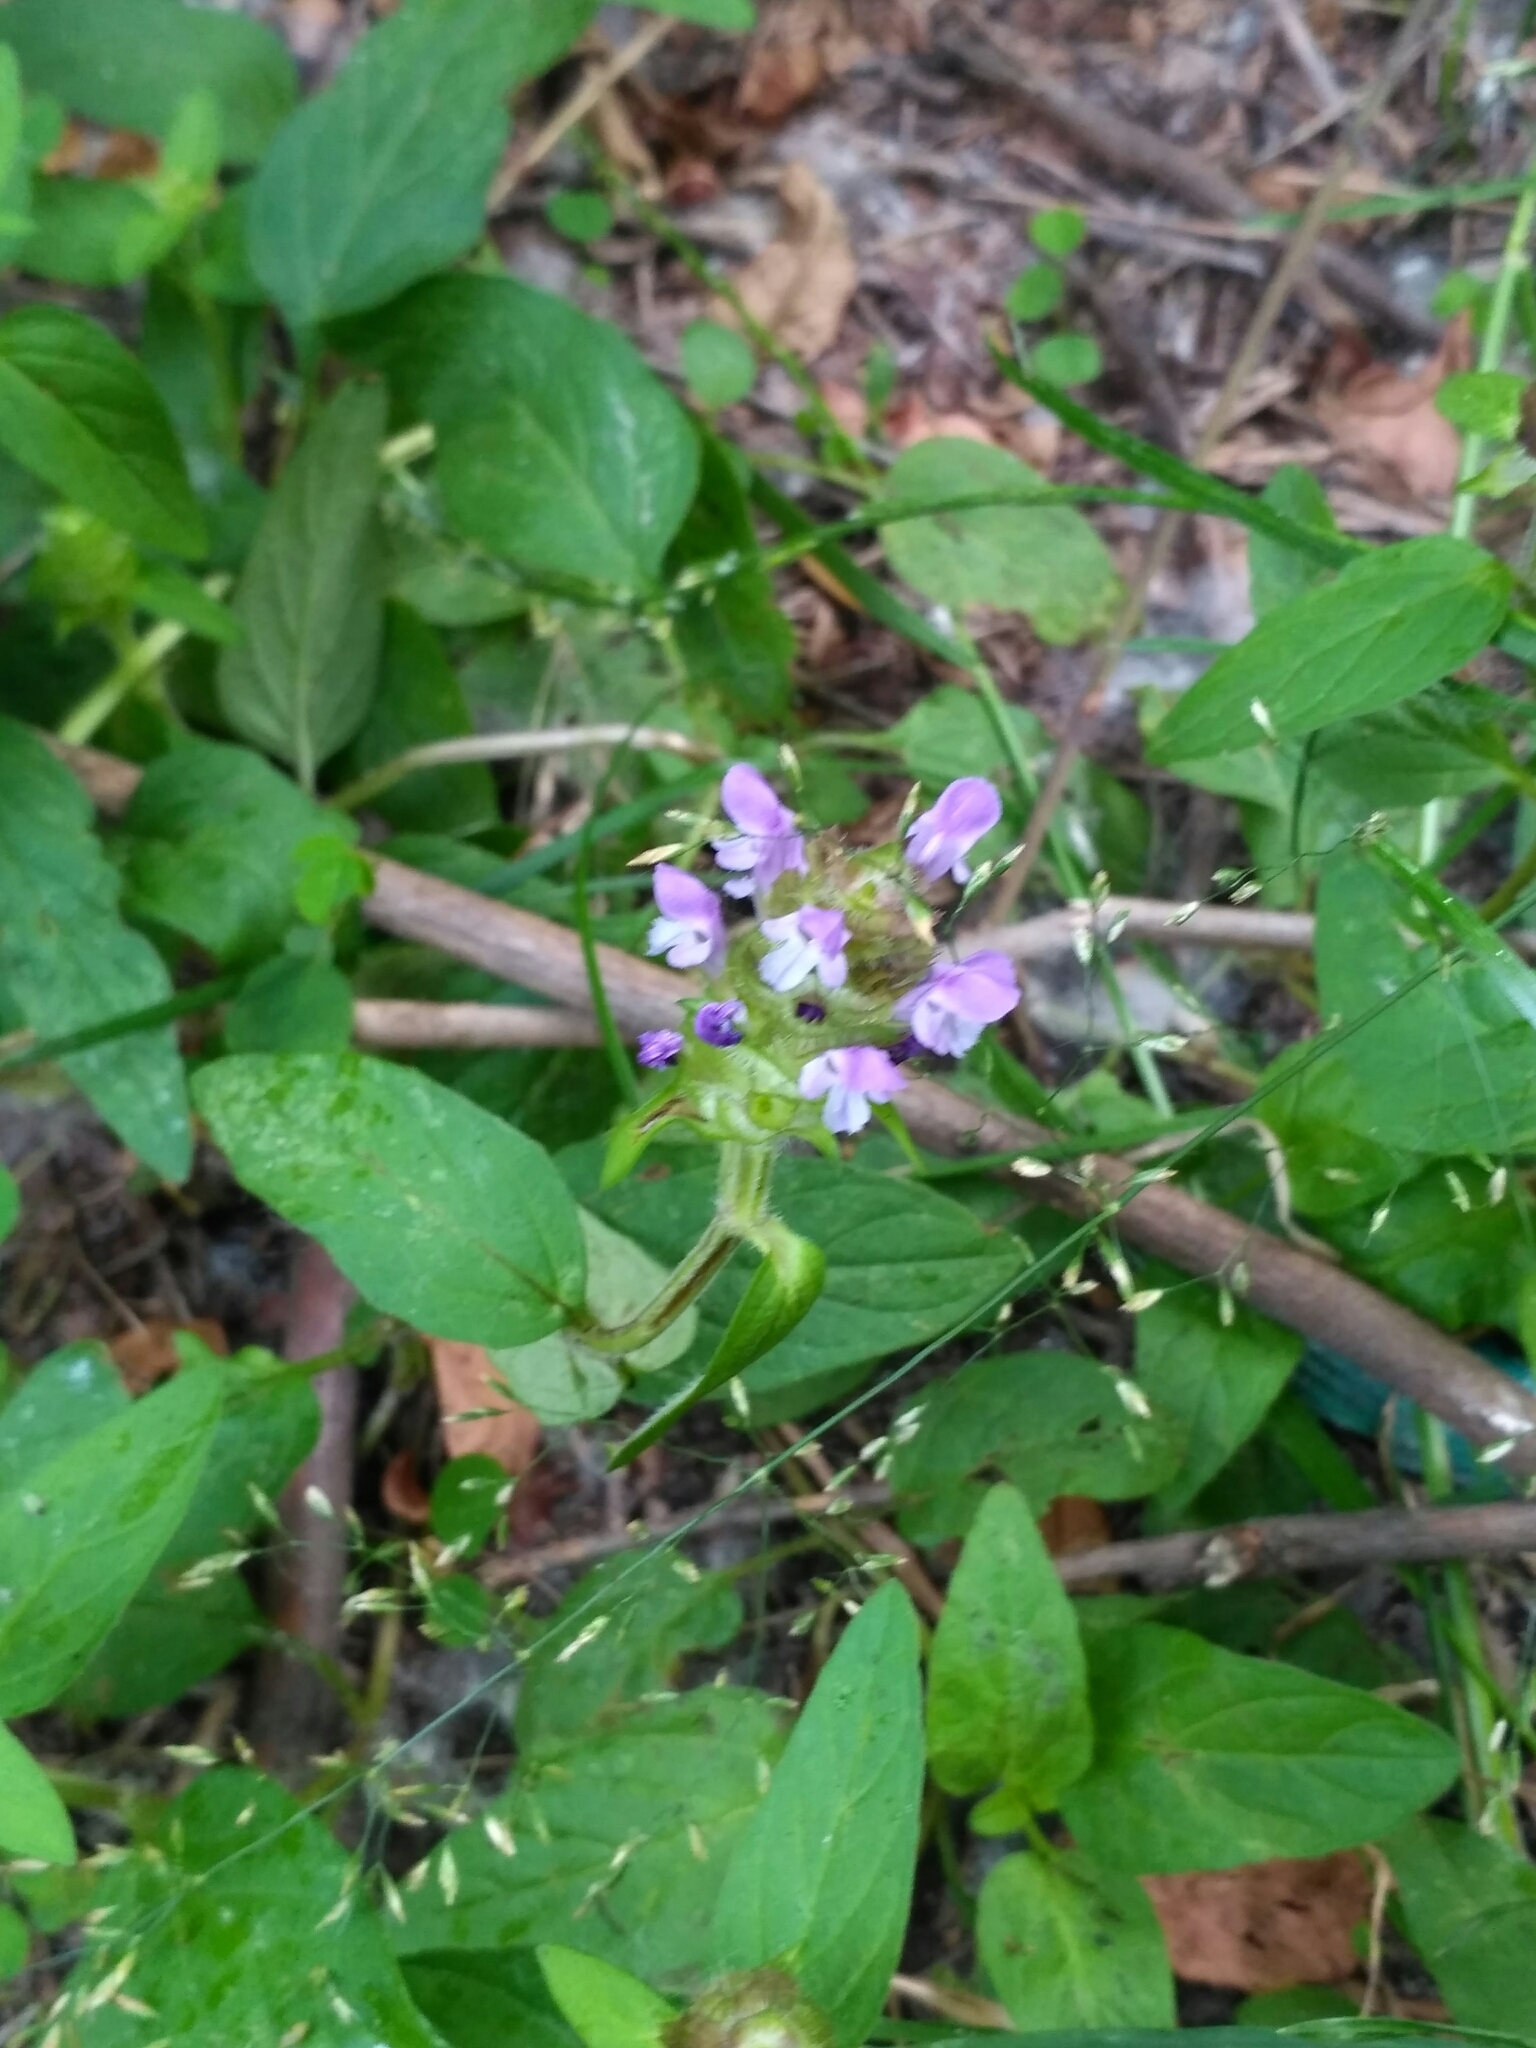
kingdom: Plantae
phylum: Tracheophyta
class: Magnoliopsida
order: Lamiales
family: Lamiaceae
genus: Prunella
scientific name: Prunella vulgaris
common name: Heal-all
